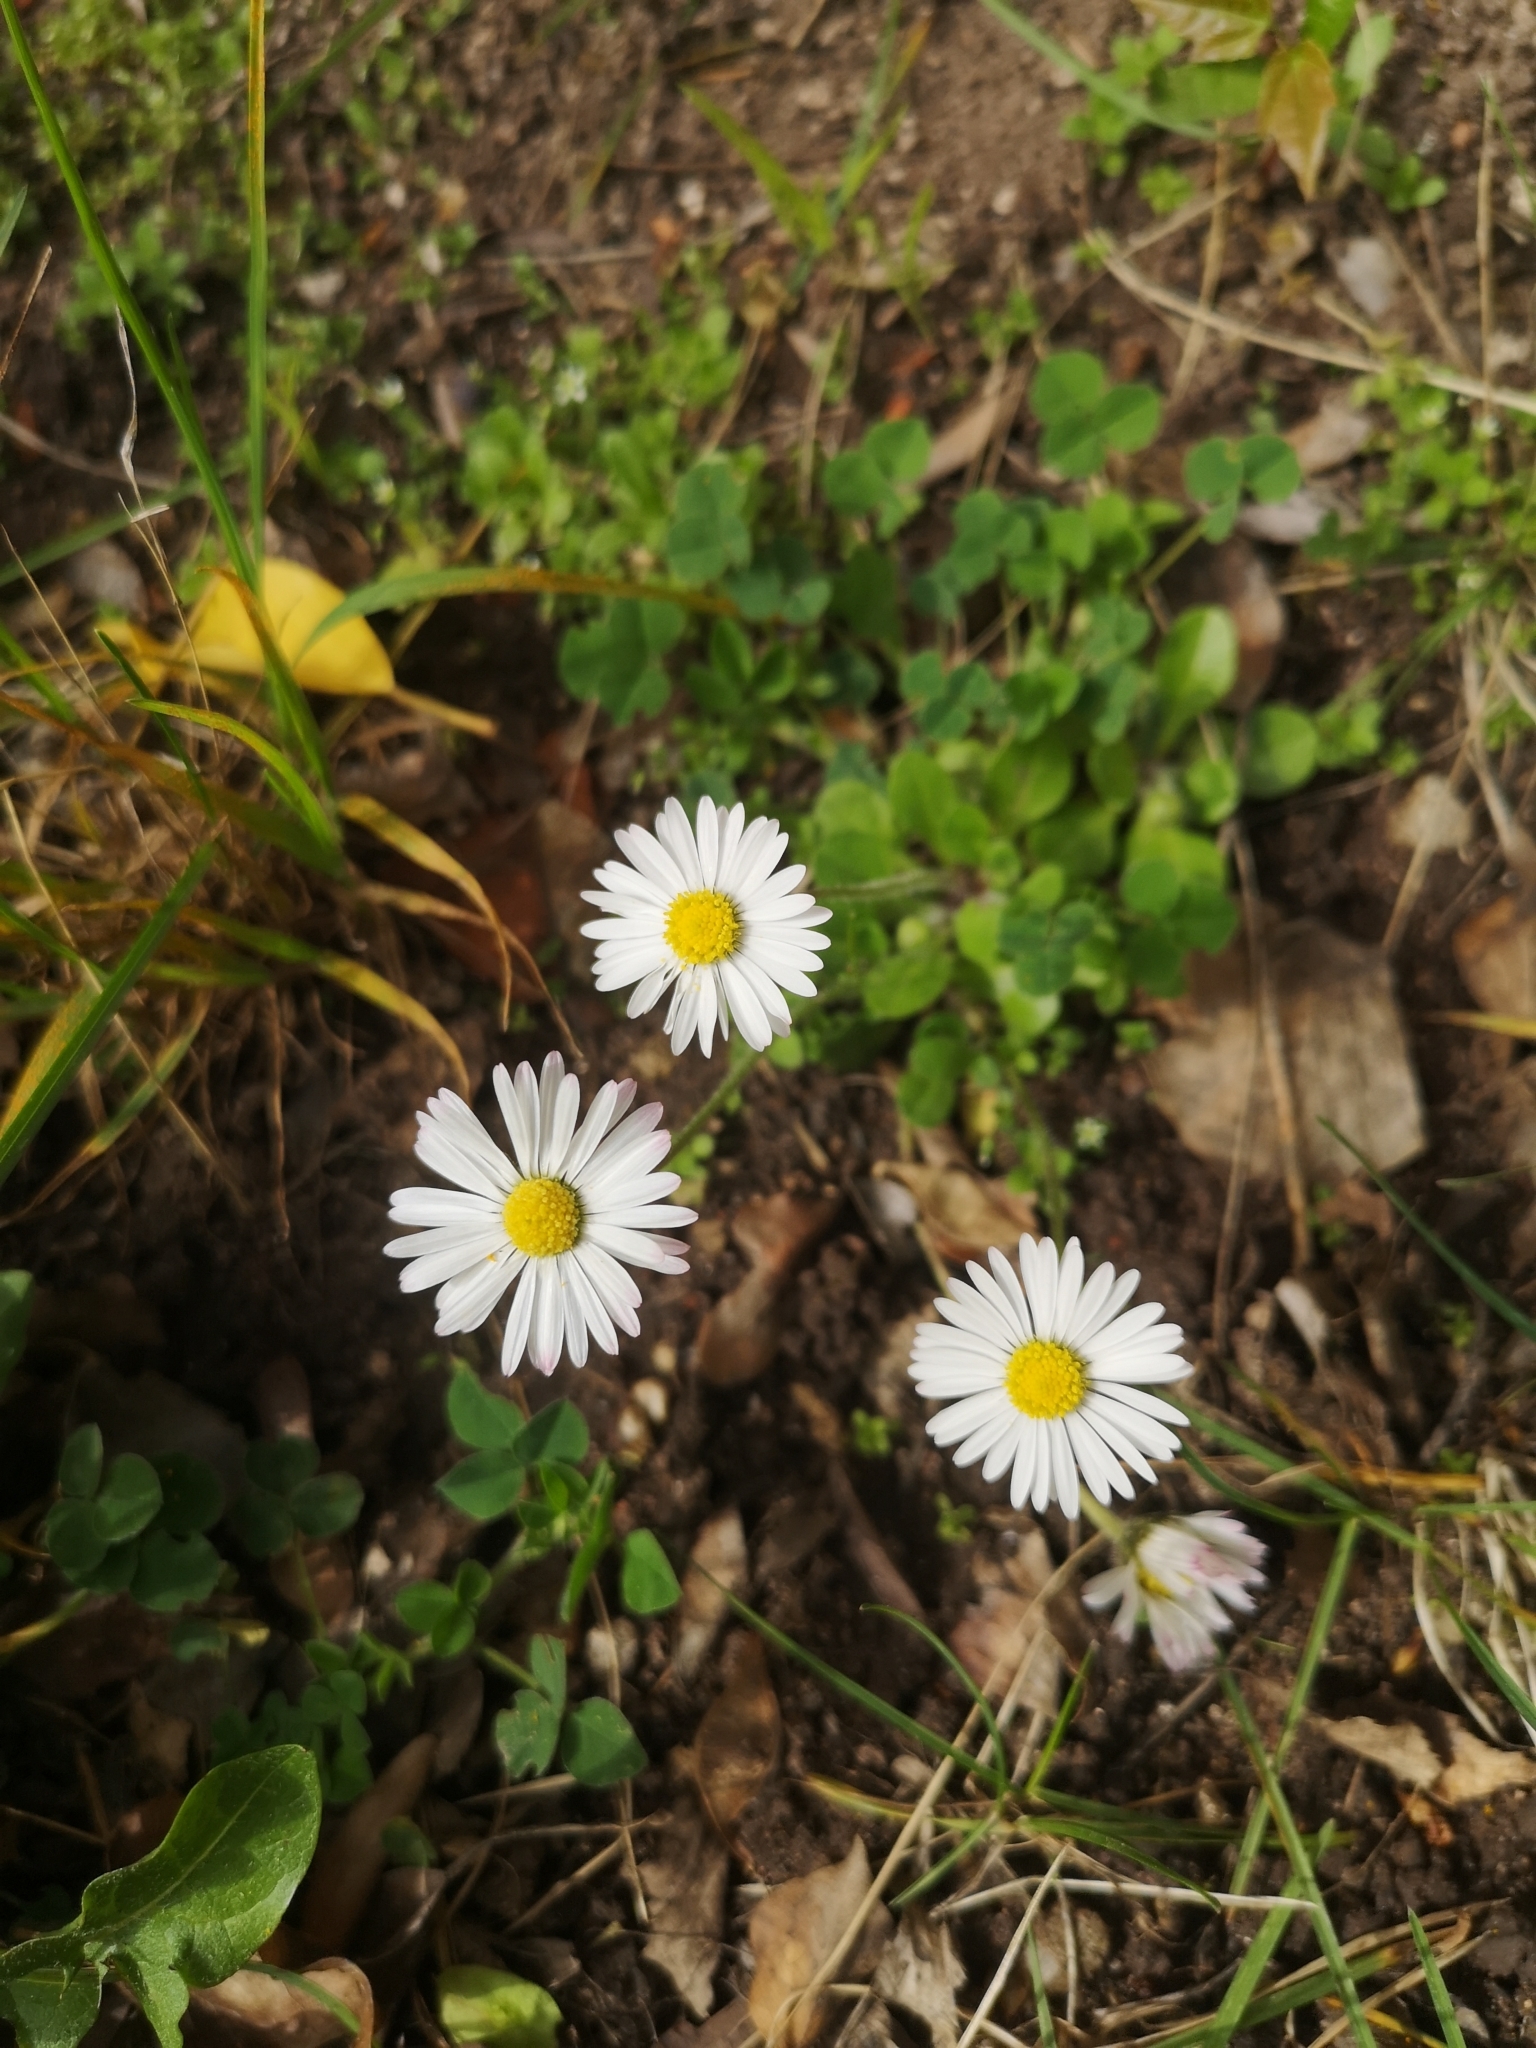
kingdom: Plantae
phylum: Tracheophyta
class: Magnoliopsida
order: Asterales
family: Asteraceae
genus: Bellis
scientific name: Bellis perennis
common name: Lawndaisy
